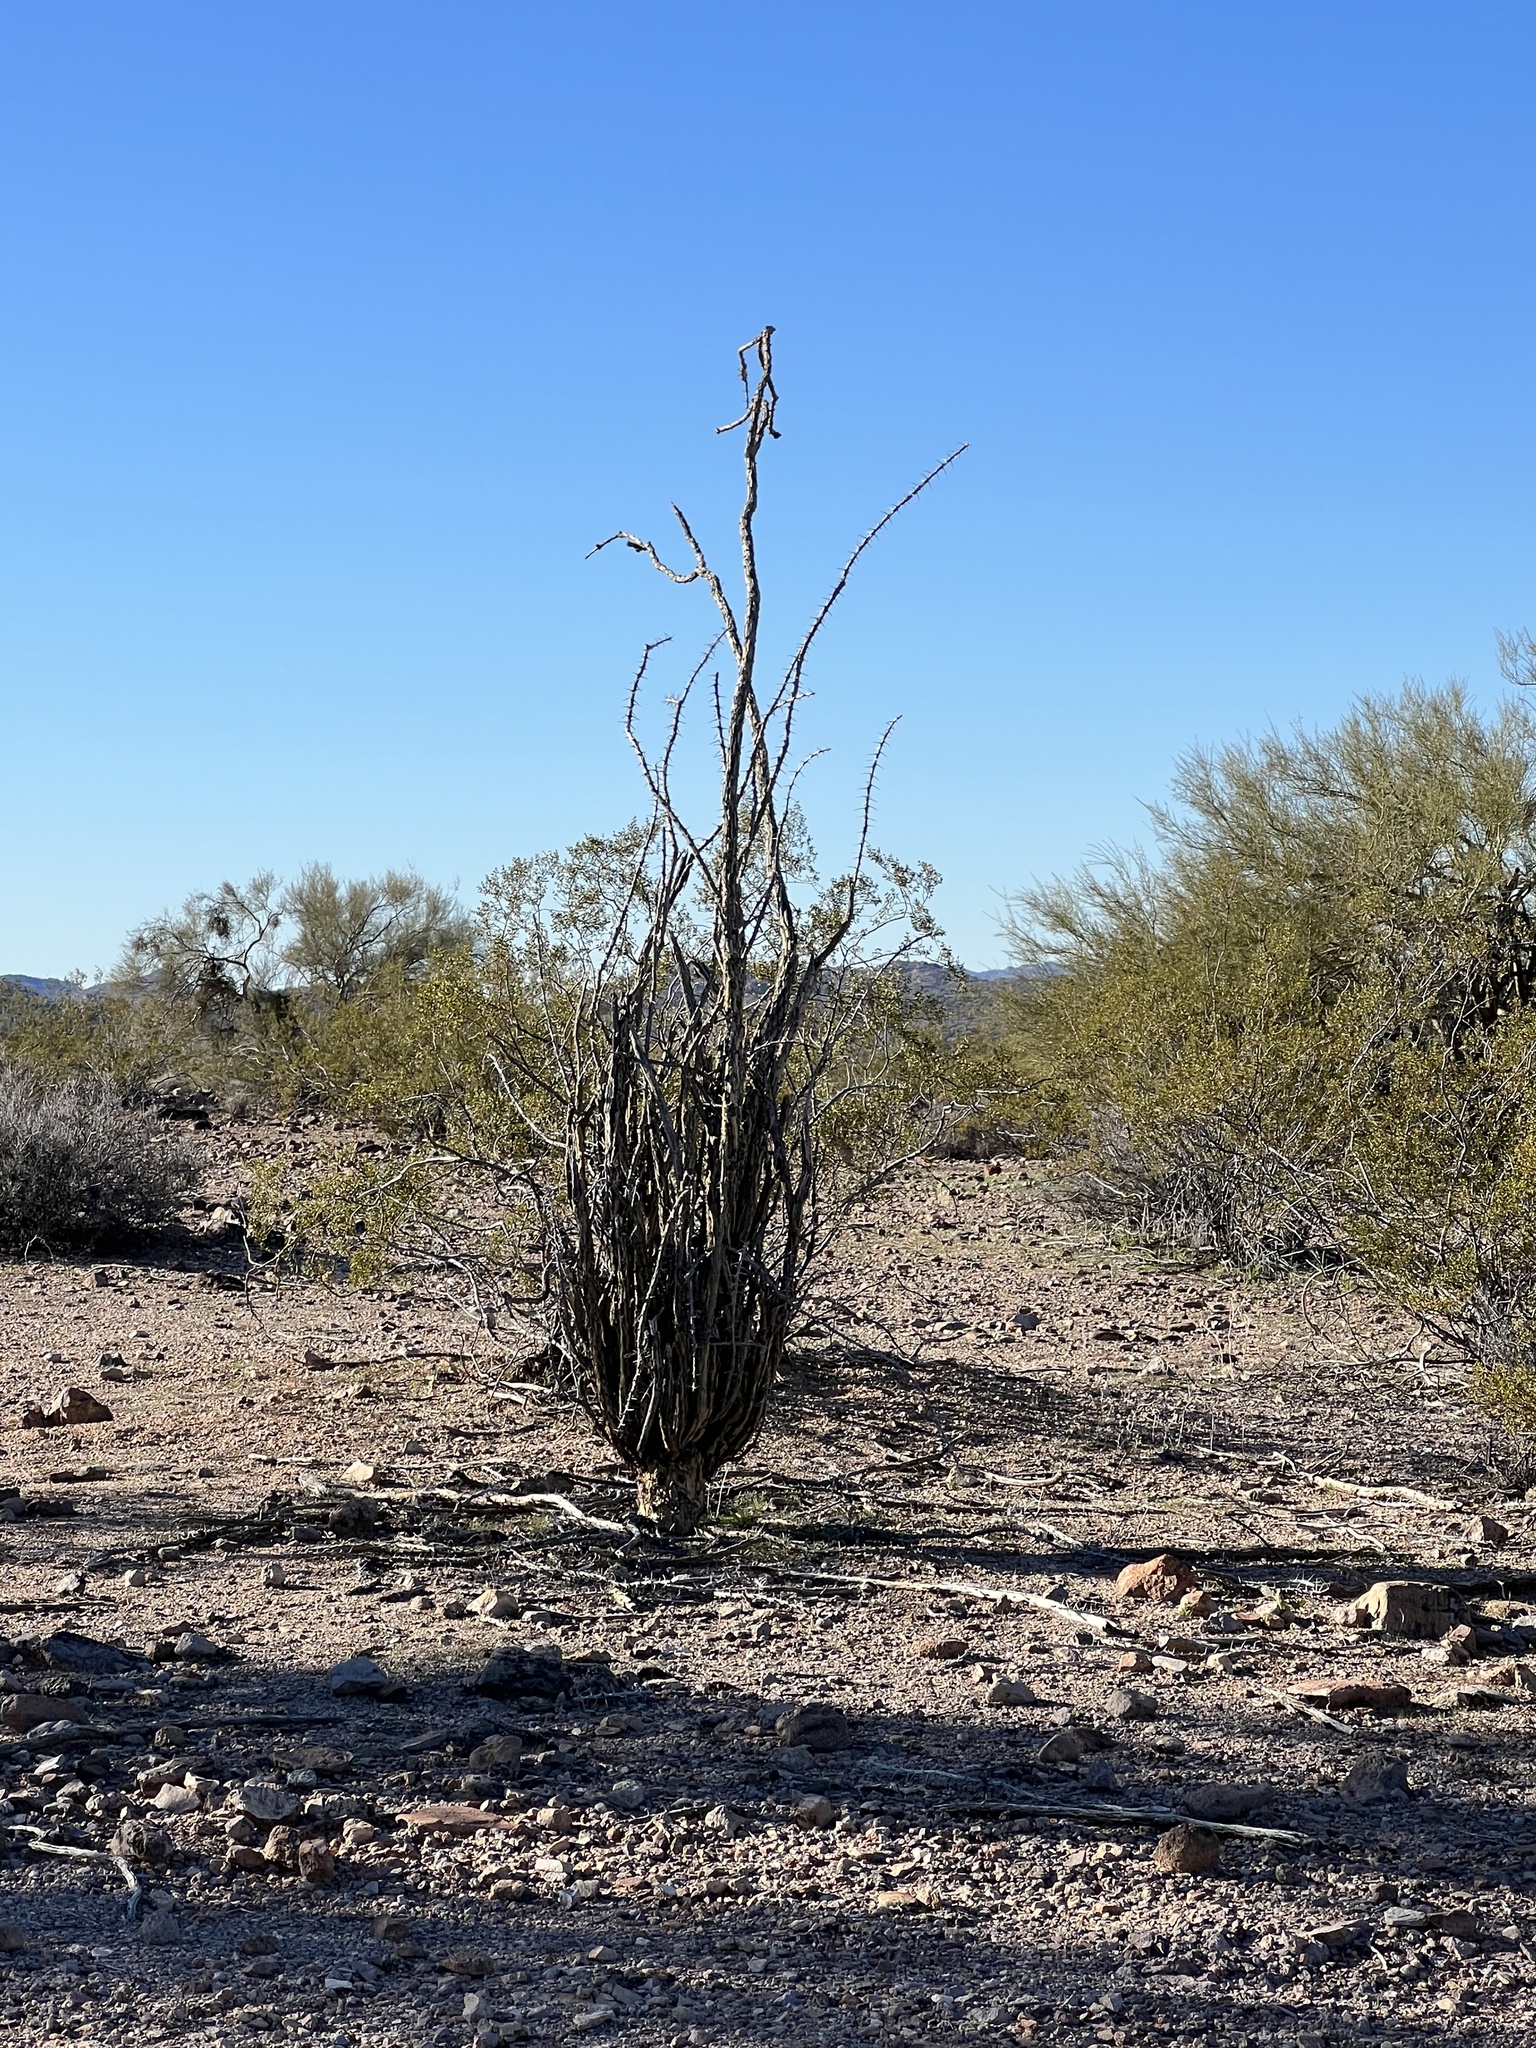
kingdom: Plantae
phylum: Tracheophyta
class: Magnoliopsida
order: Ericales
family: Fouquieriaceae
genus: Fouquieria
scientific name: Fouquieria splendens
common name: Vine-cactus
